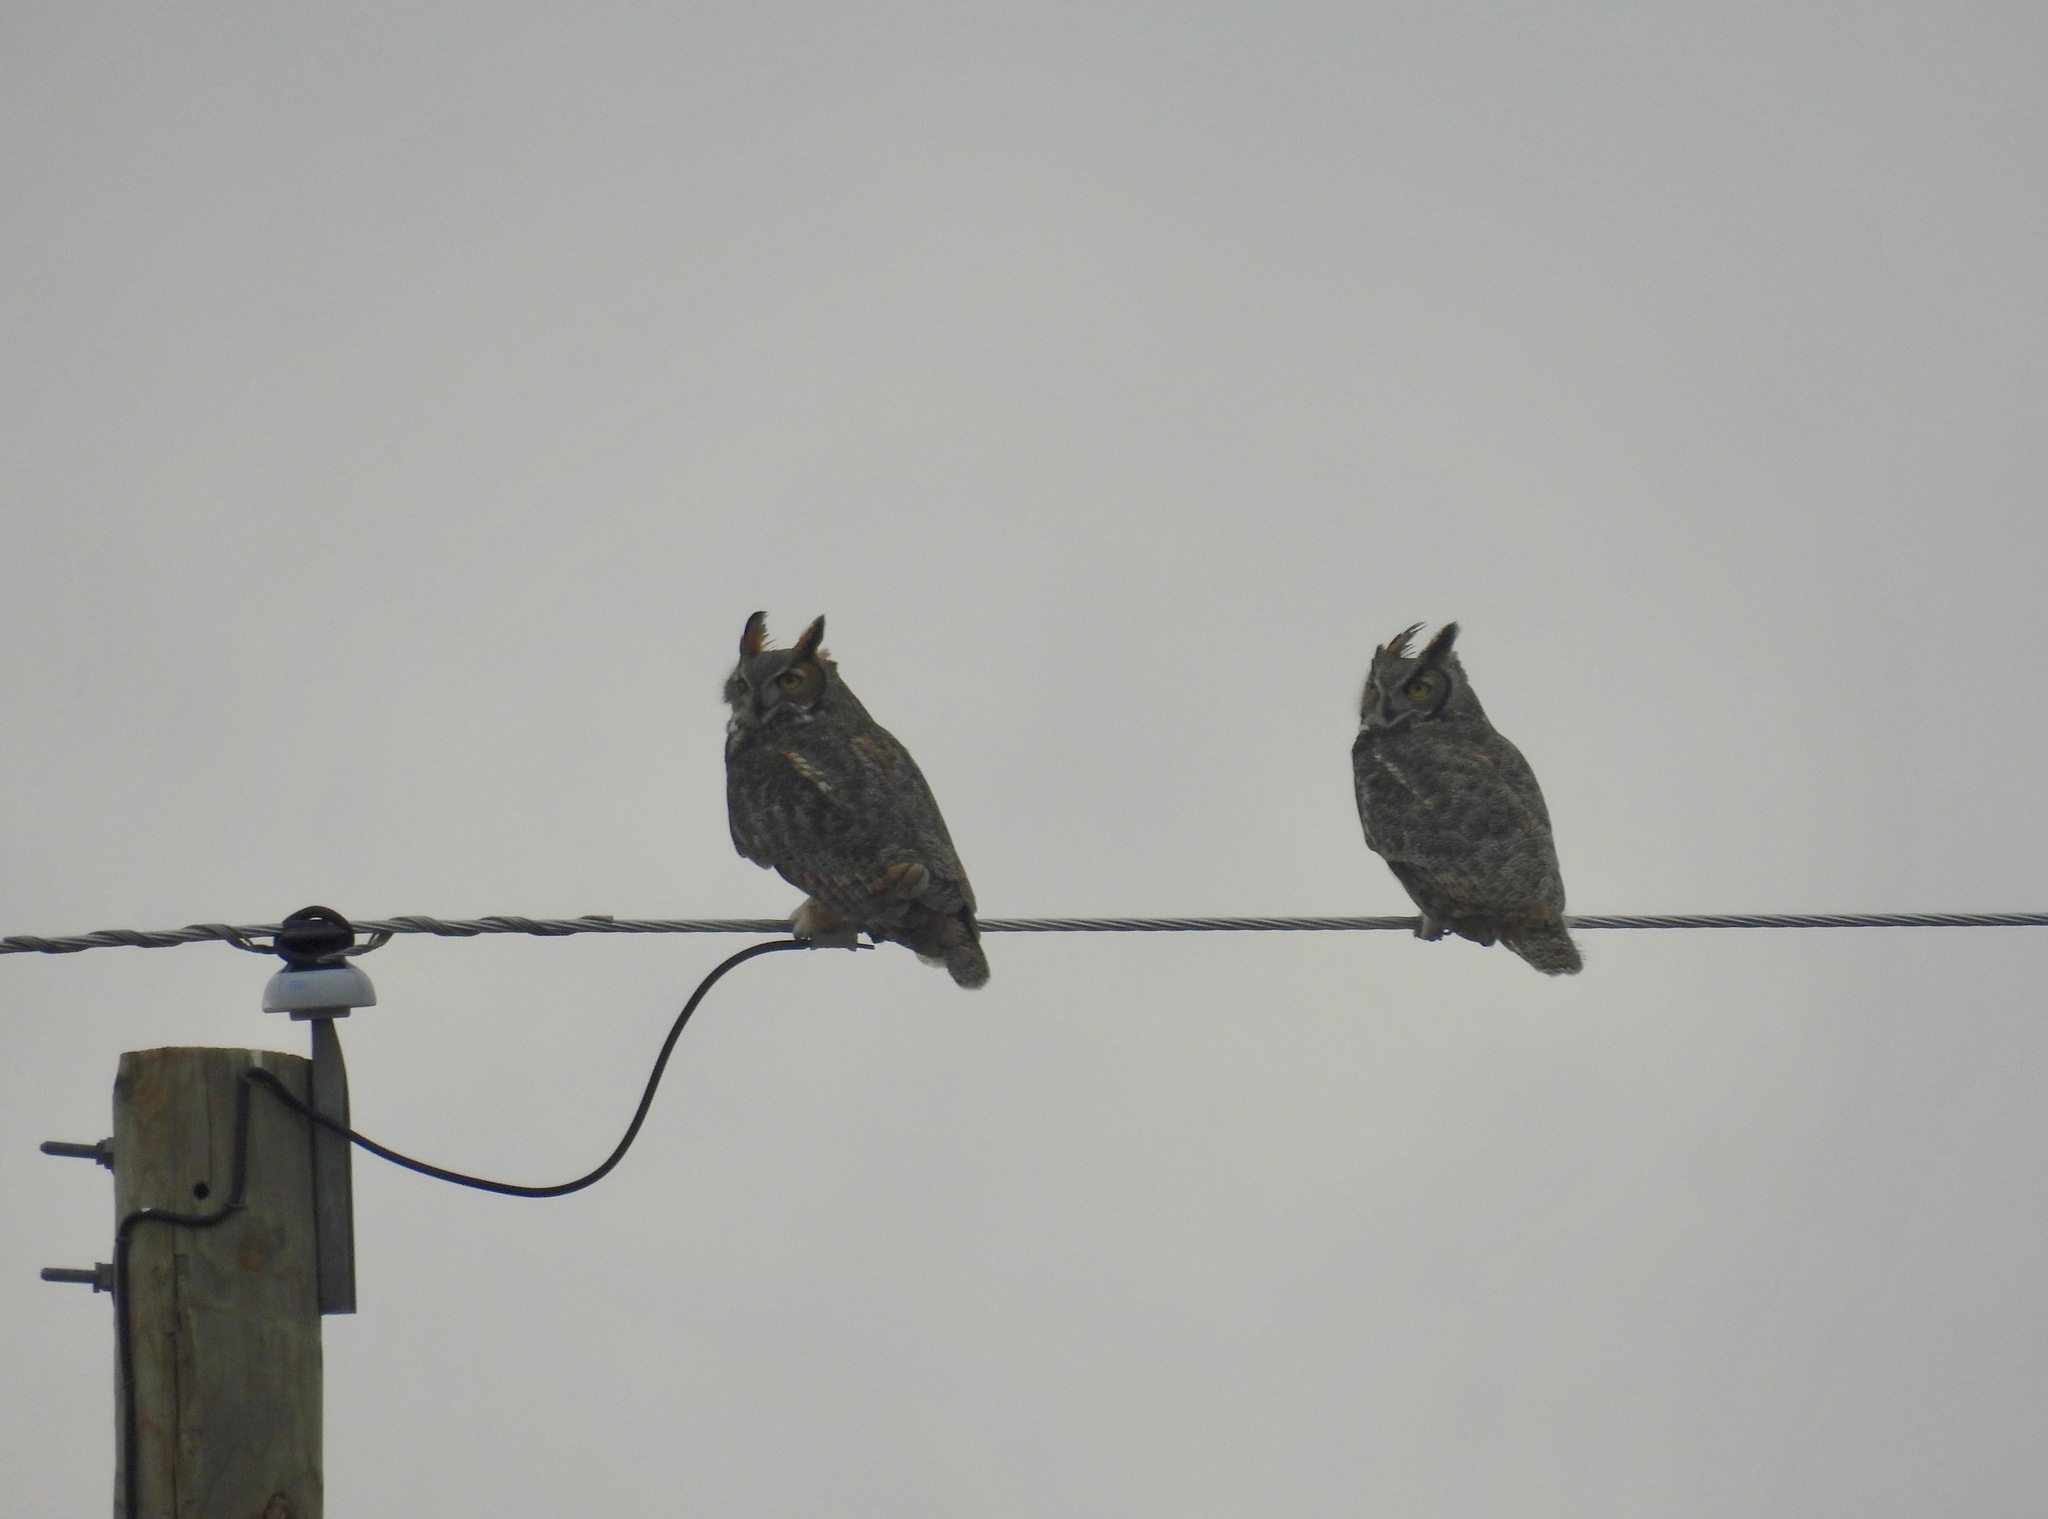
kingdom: Animalia
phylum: Chordata
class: Aves
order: Strigiformes
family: Strigidae
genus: Bubo
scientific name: Bubo virginianus
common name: Great horned owl
